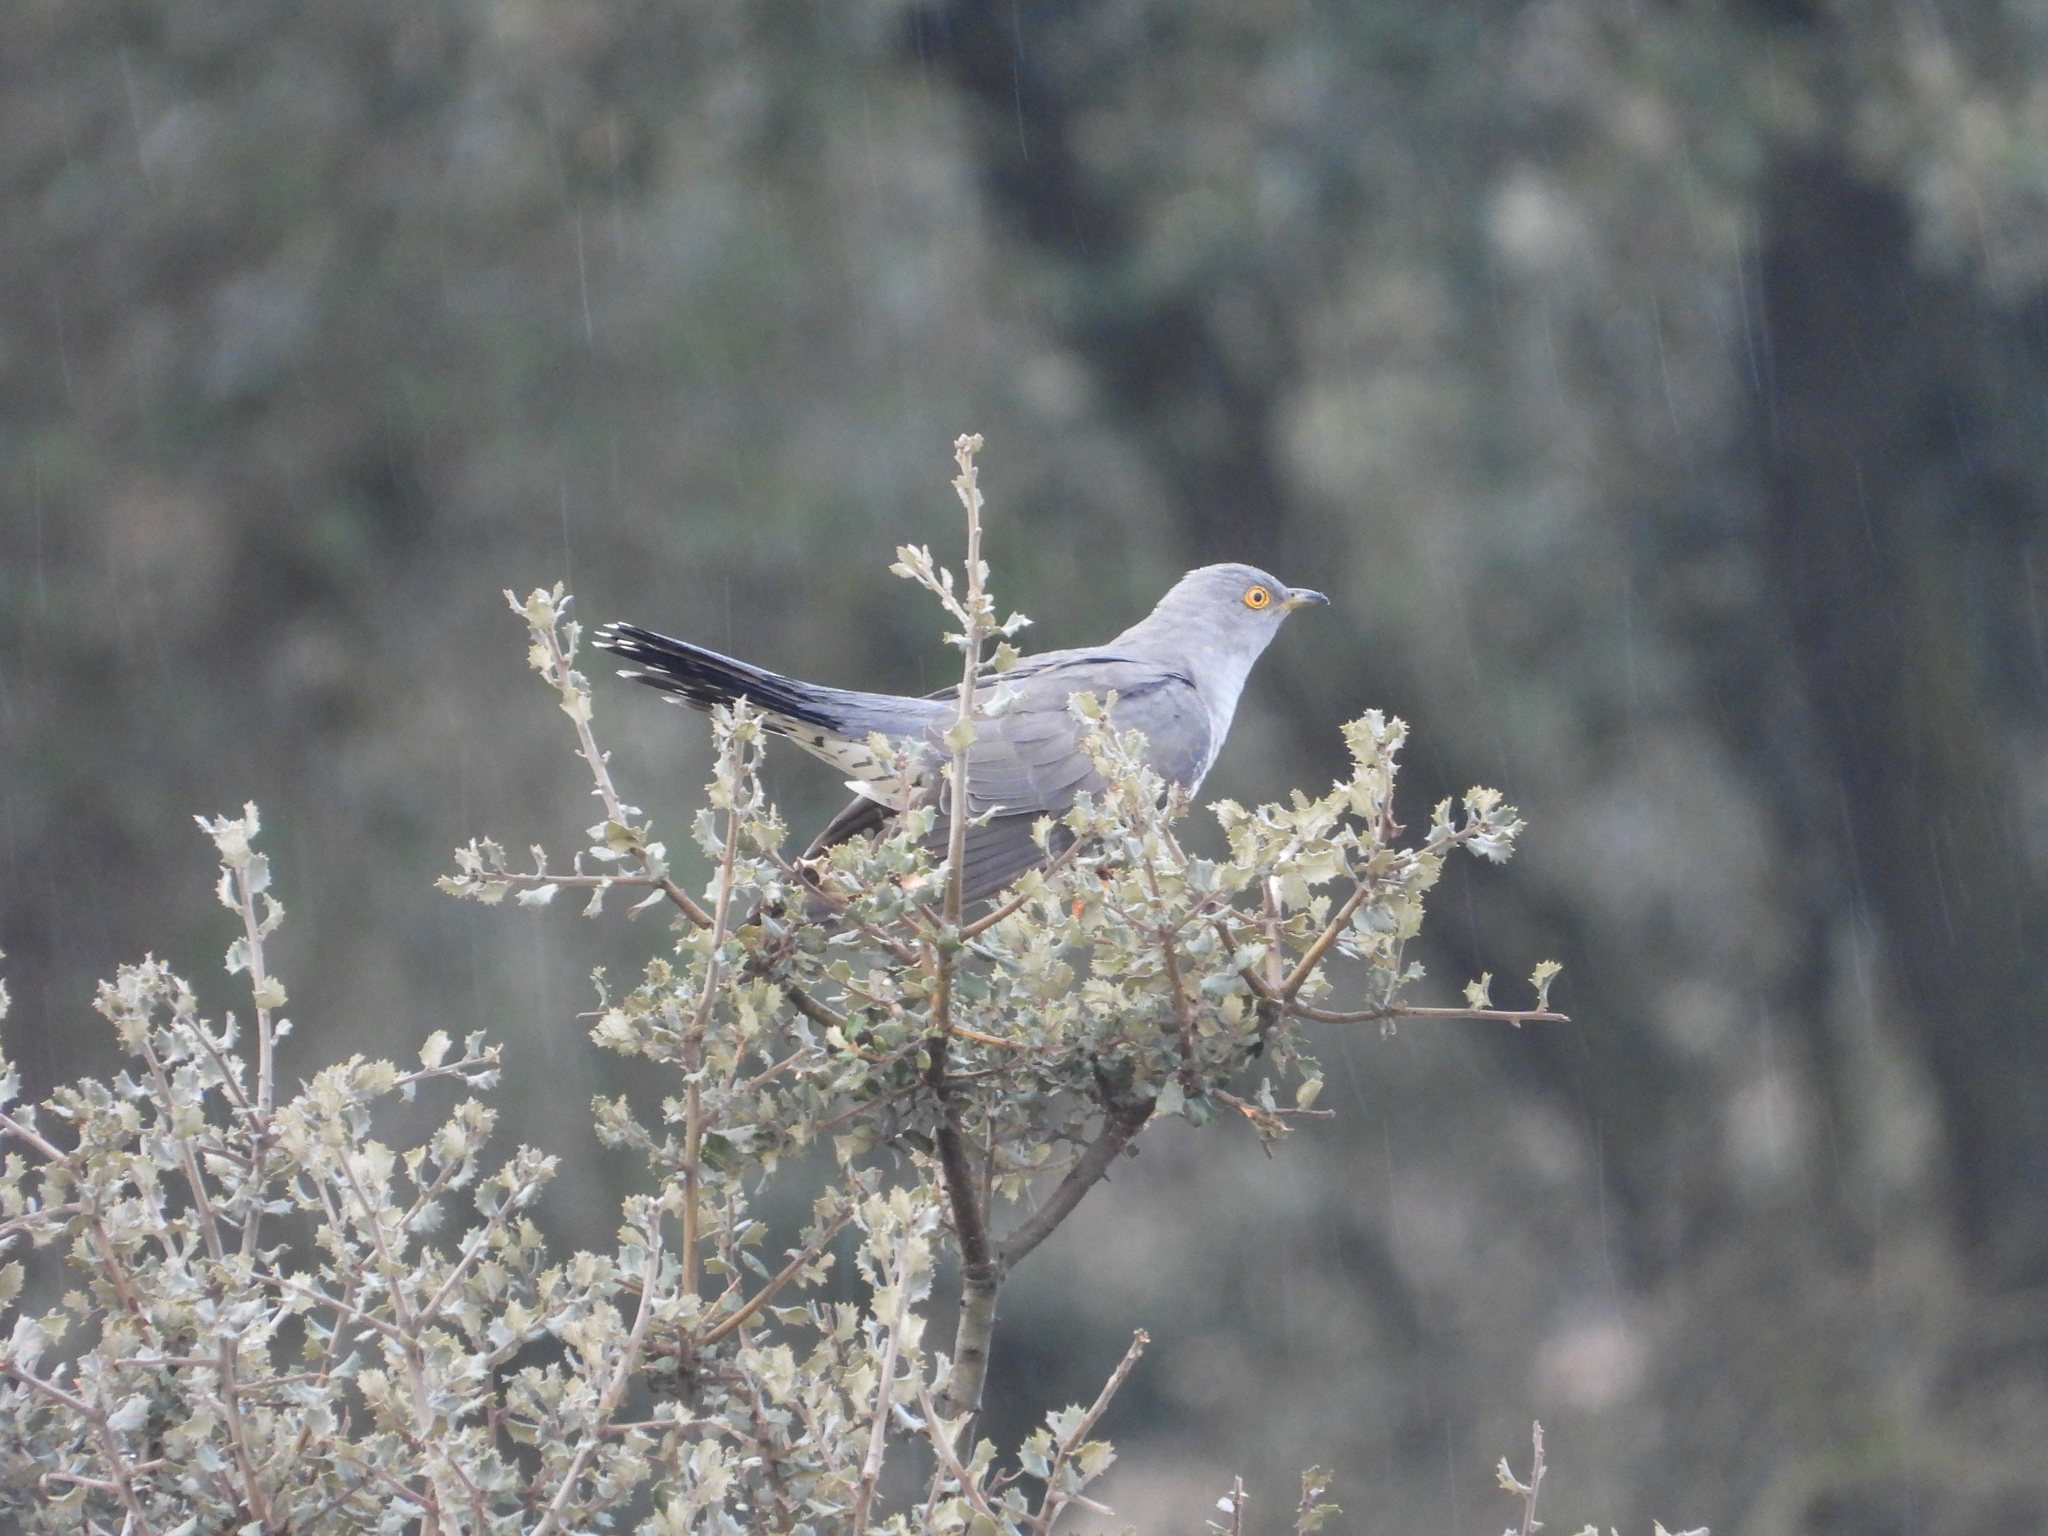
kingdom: Animalia
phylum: Chordata
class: Aves
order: Cuculiformes
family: Cuculidae
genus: Cuculus
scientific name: Cuculus canorus
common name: Common cuckoo
